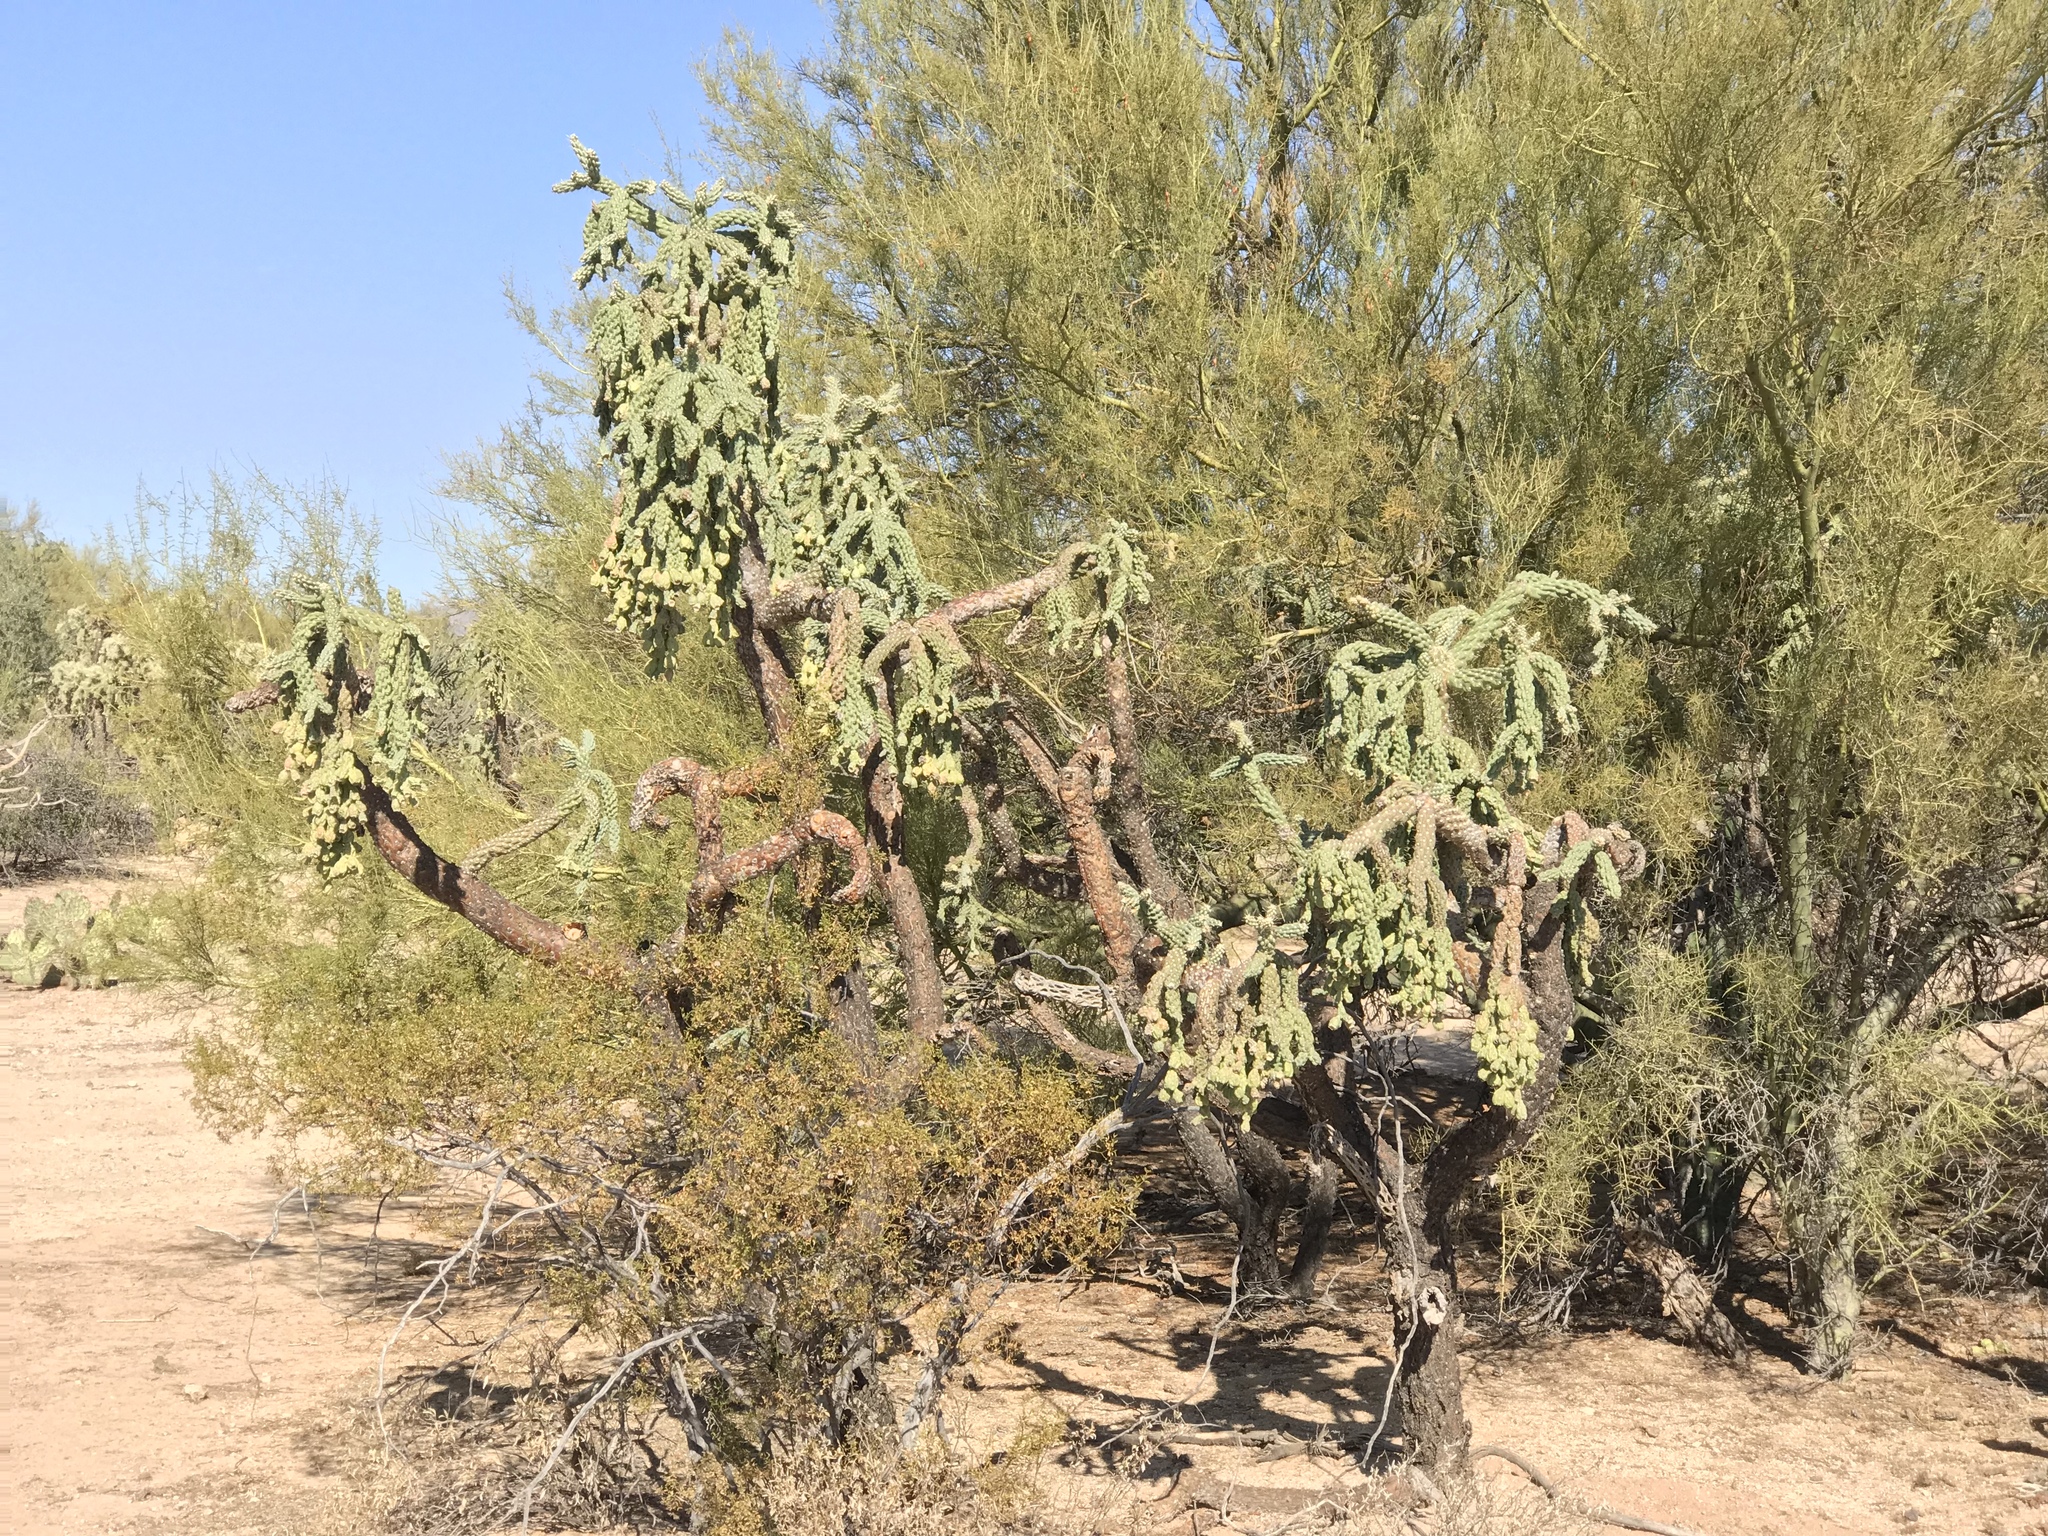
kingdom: Plantae
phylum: Tracheophyta
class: Magnoliopsida
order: Caryophyllales
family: Cactaceae
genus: Cylindropuntia
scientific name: Cylindropuntia fulgida
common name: Jumping cholla
